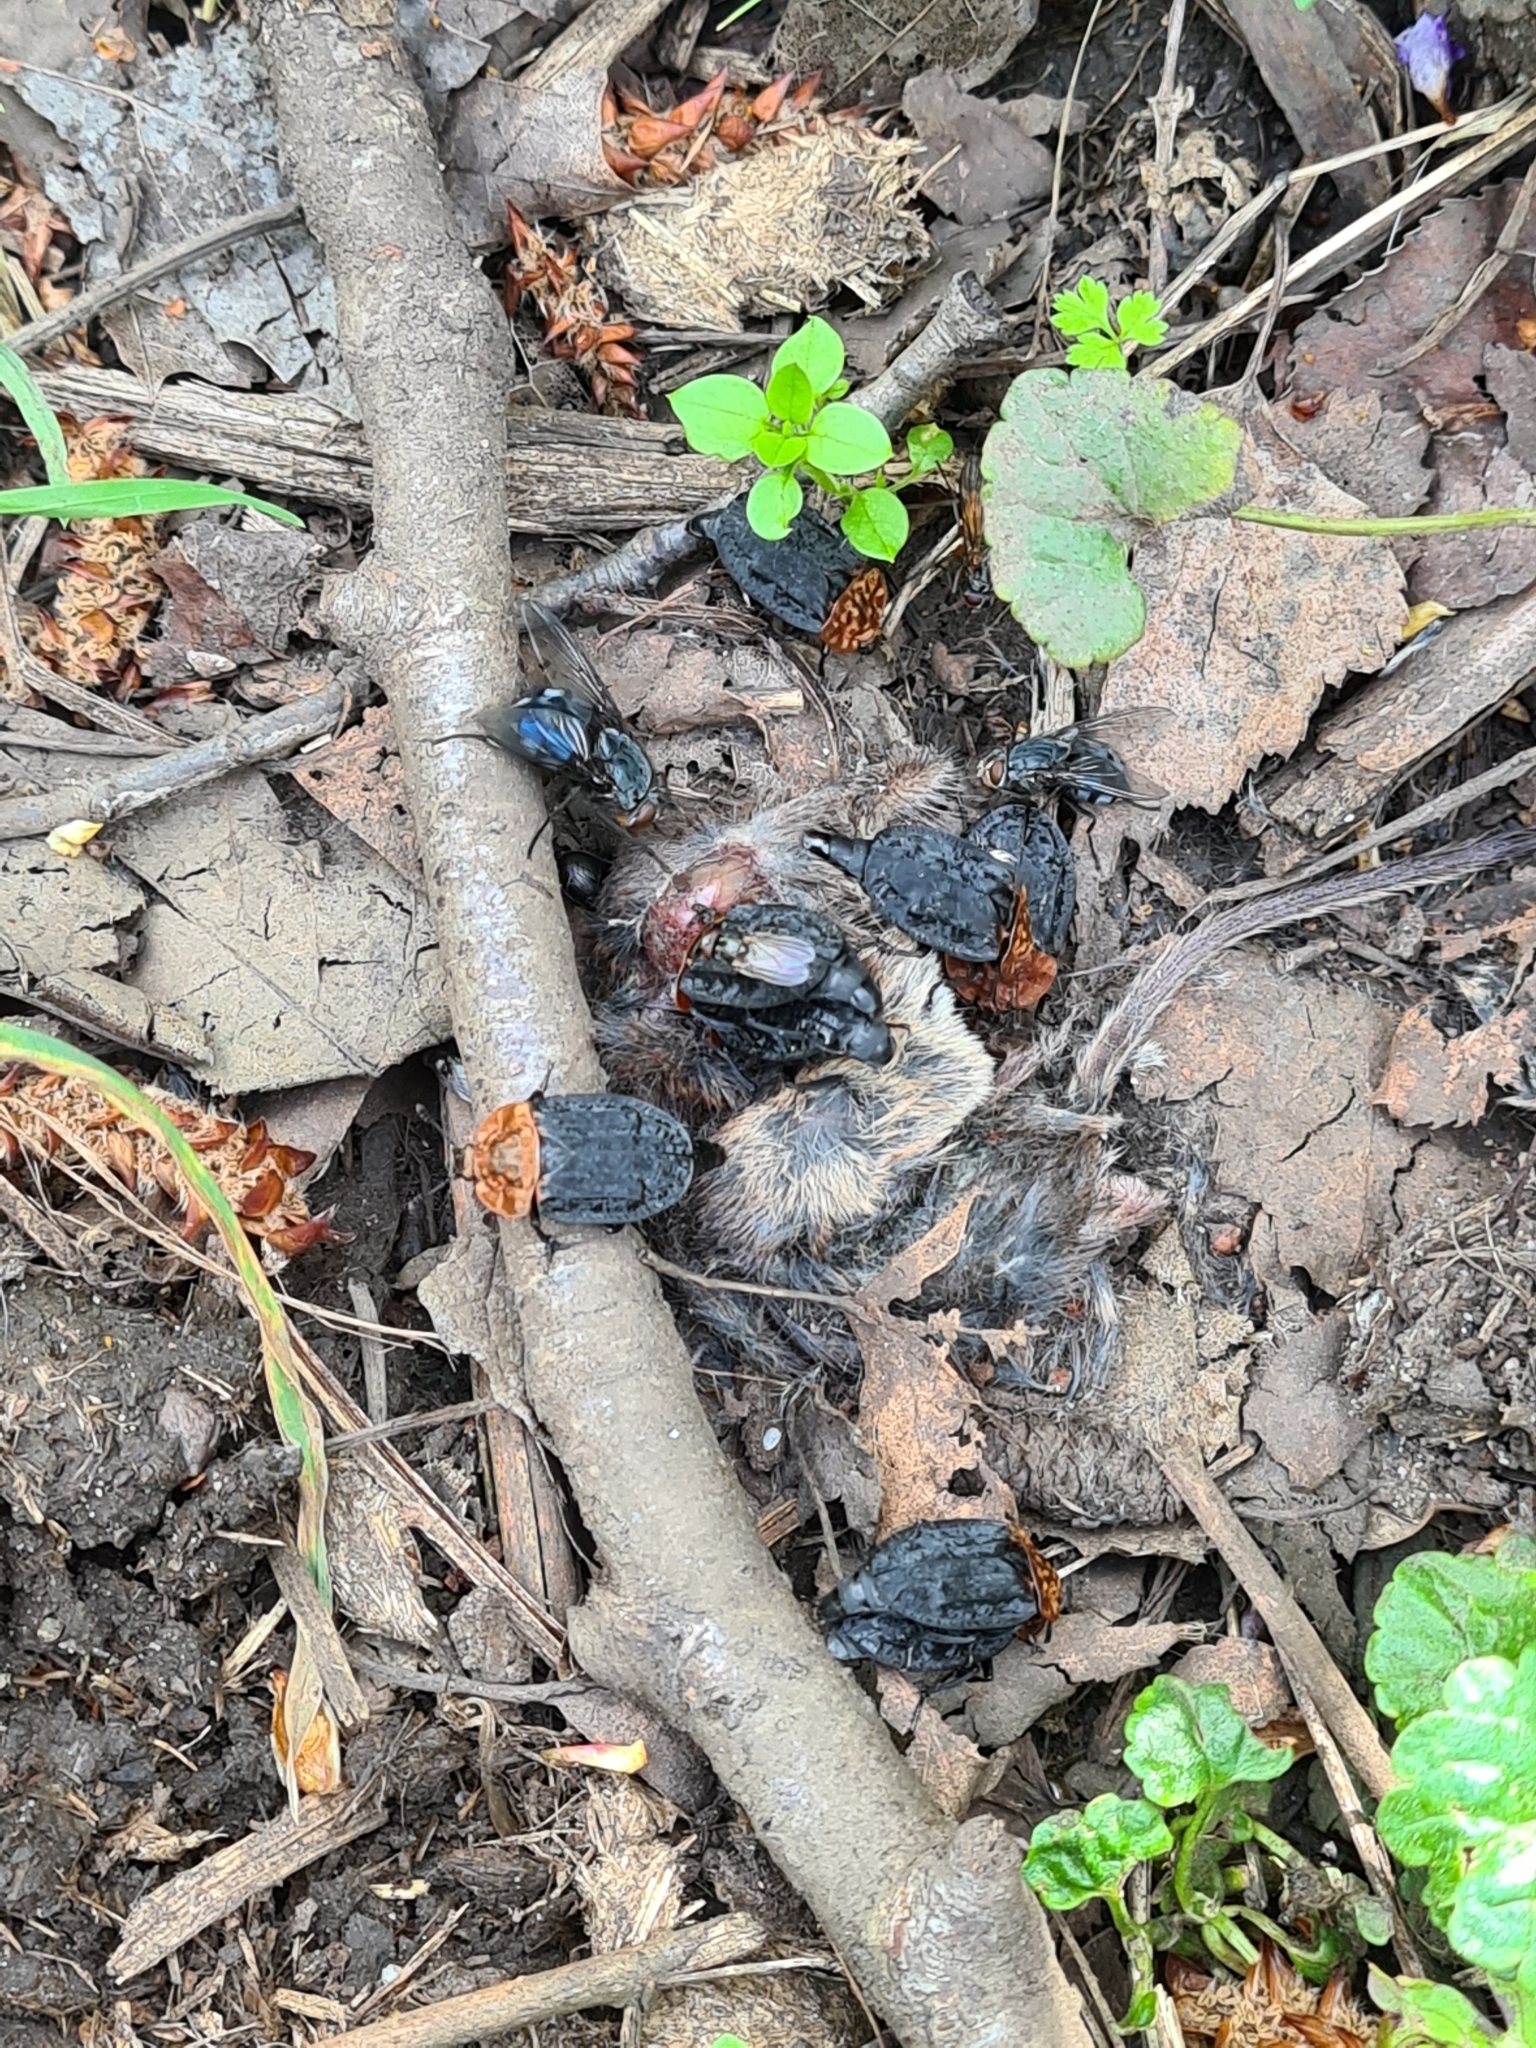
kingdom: Animalia
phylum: Arthropoda
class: Insecta
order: Coleoptera
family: Staphylinidae
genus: Oiceoptoma
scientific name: Oiceoptoma thoracicum
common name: Red-breasted carrion beetle
